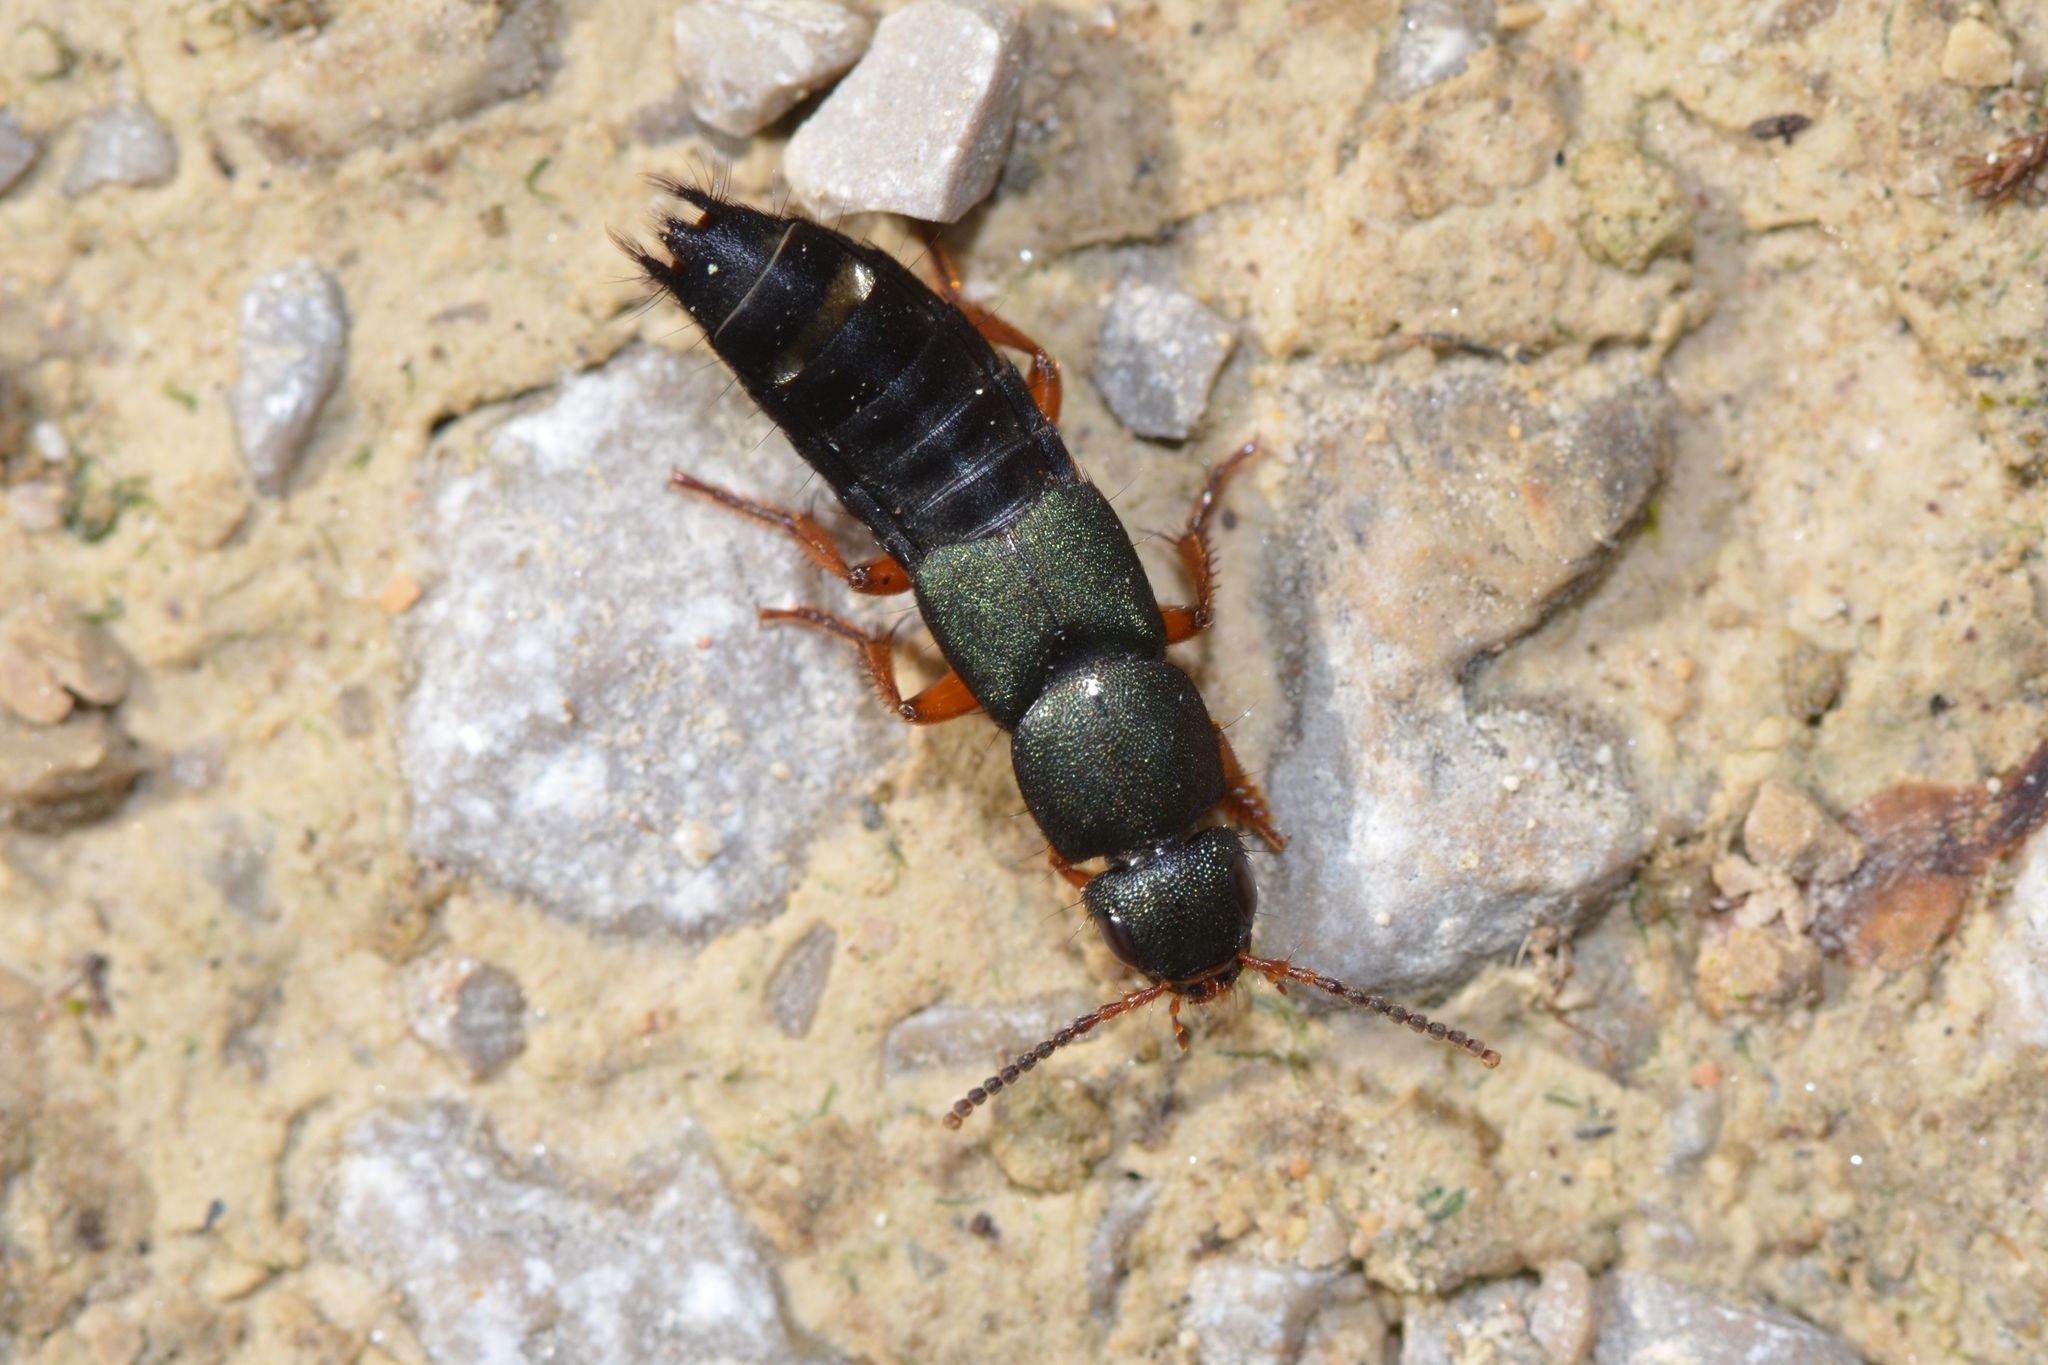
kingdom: Animalia
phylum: Arthropoda
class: Insecta
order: Coleoptera
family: Staphylinidae
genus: Platydracus
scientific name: Platydracus fulvipes
